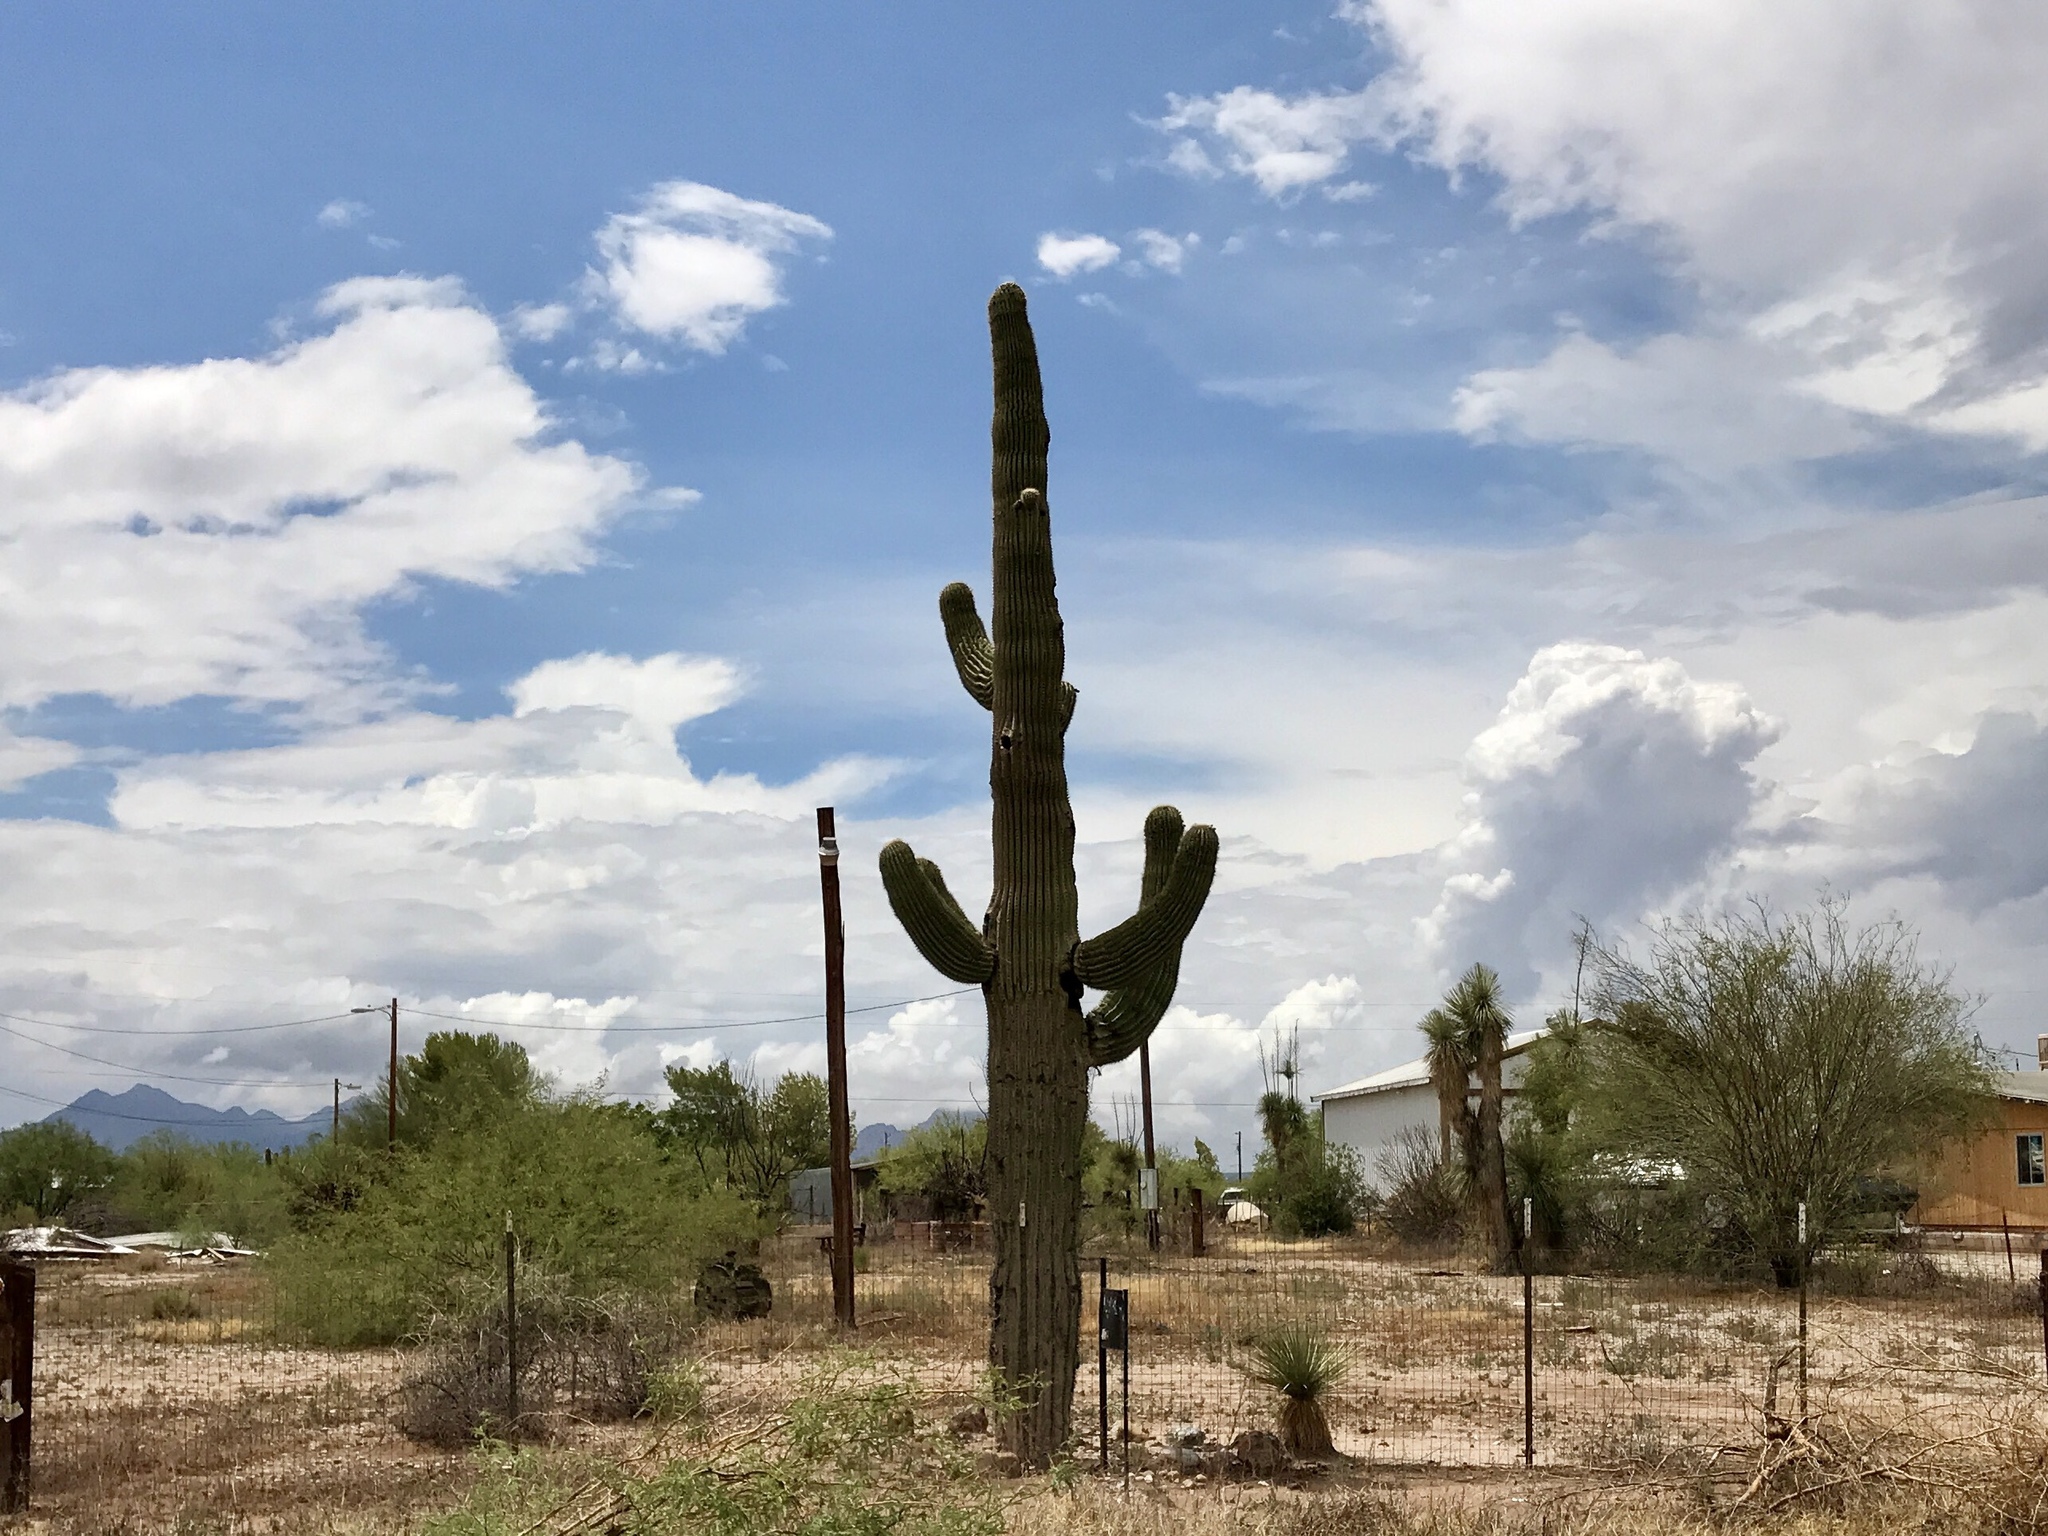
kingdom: Plantae
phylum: Tracheophyta
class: Magnoliopsida
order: Caryophyllales
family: Cactaceae
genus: Carnegiea
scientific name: Carnegiea gigantea
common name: Saguaro
